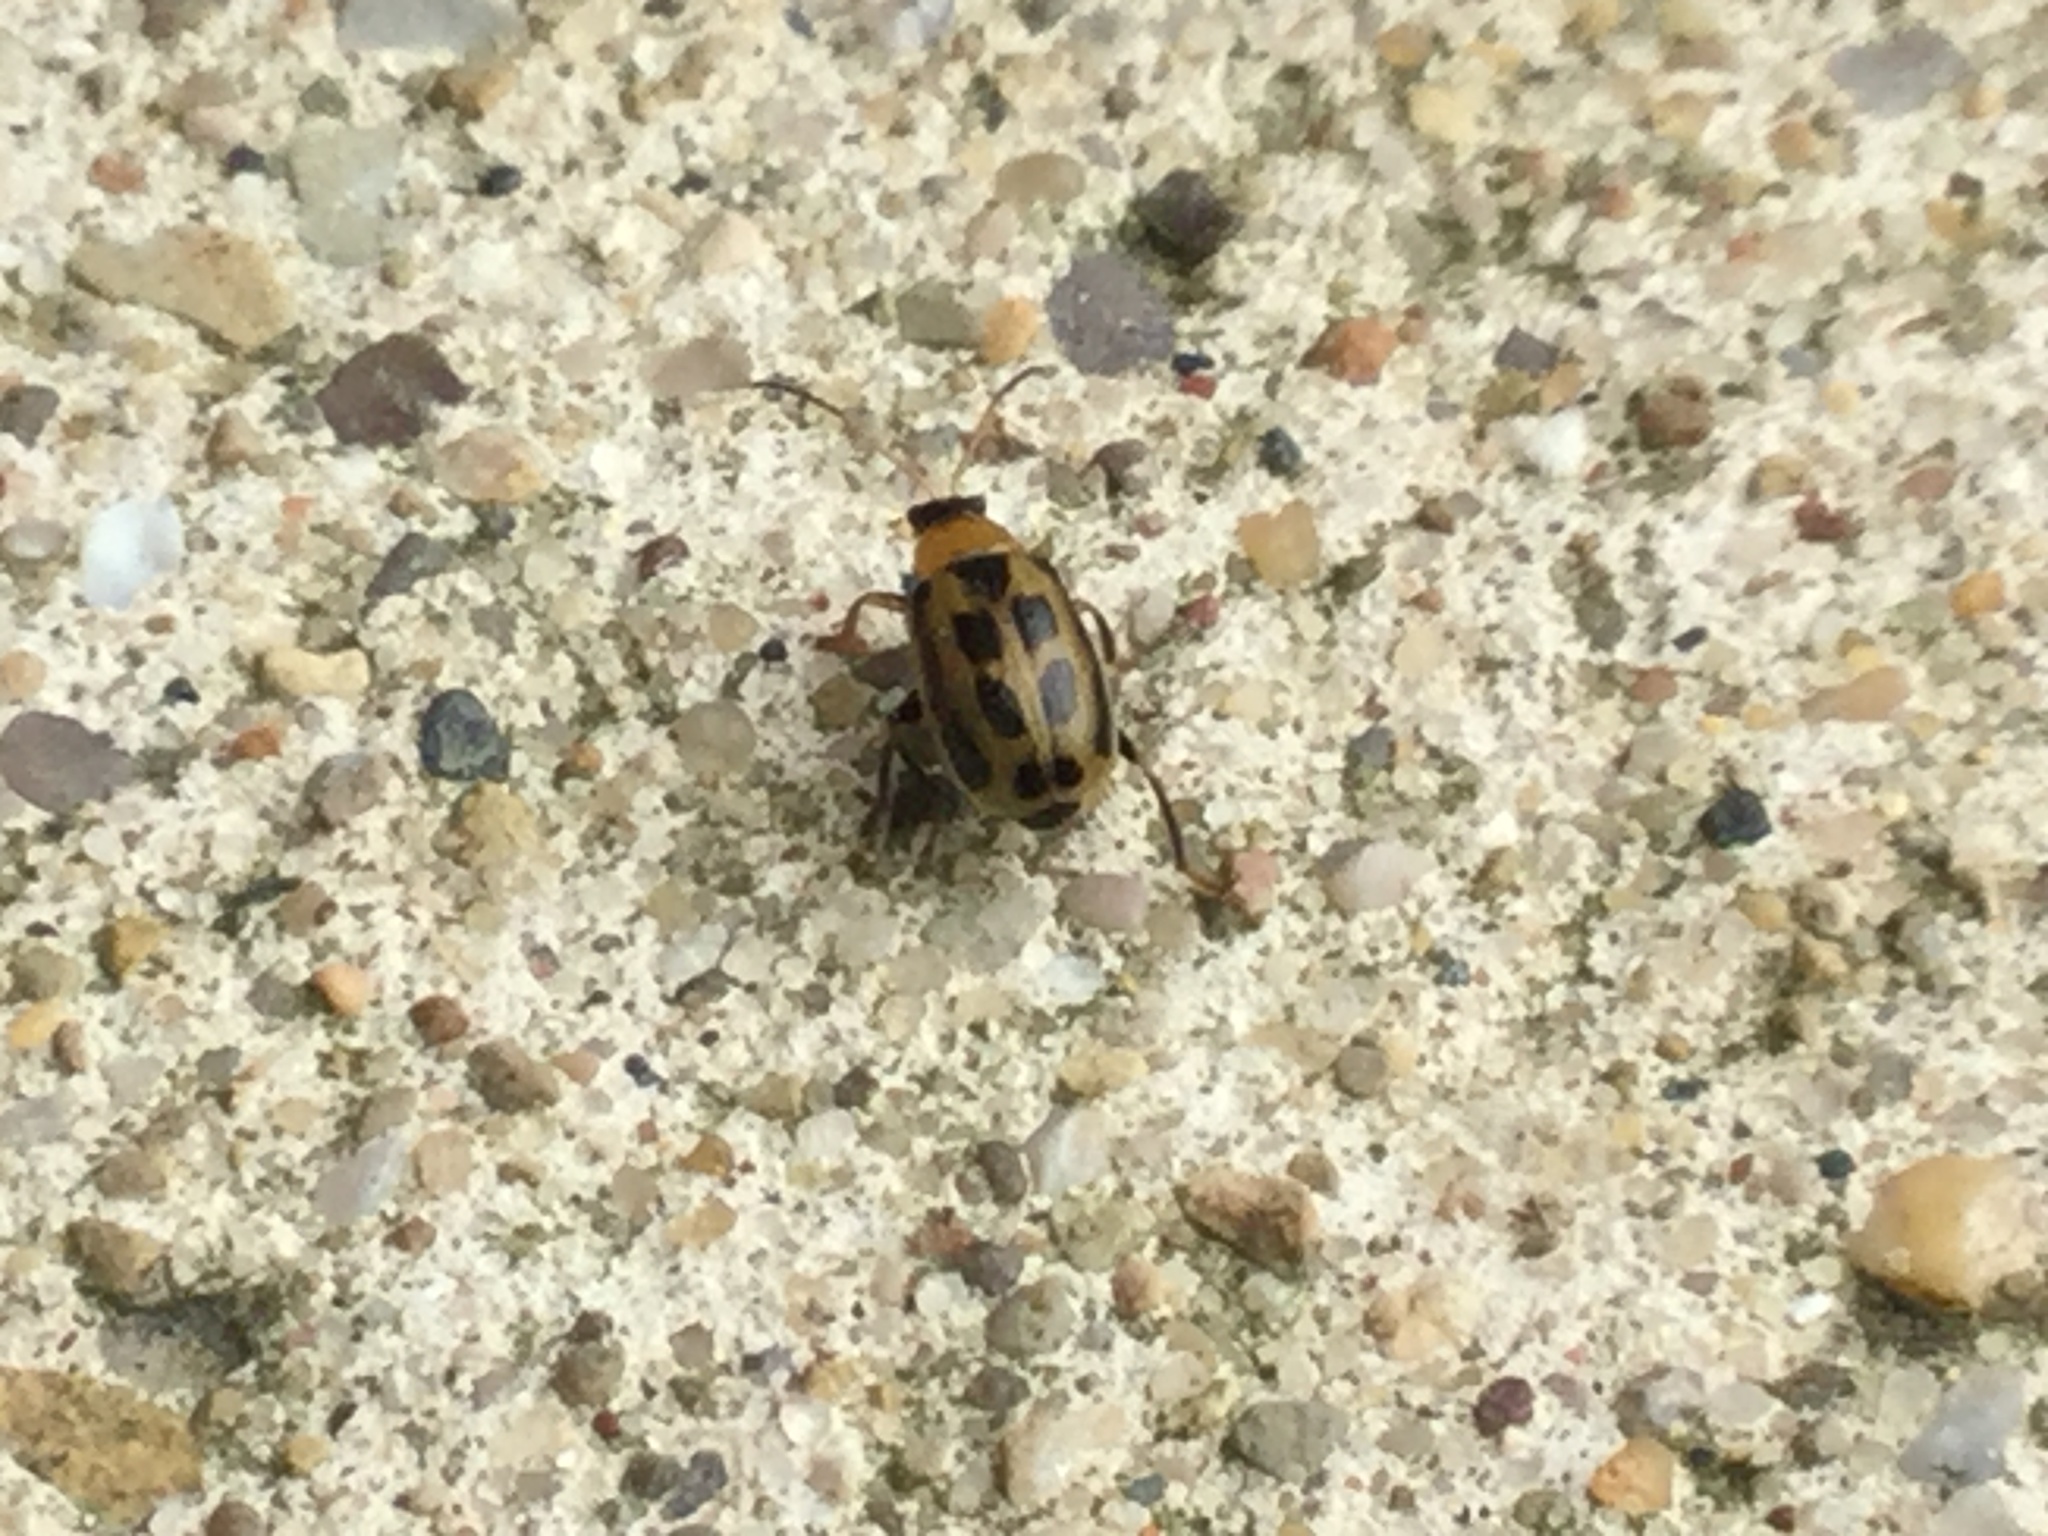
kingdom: Animalia
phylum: Arthropoda
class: Insecta
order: Coleoptera
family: Chrysomelidae
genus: Cerotoma
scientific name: Cerotoma trifurcata
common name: Bean leaf beetle
